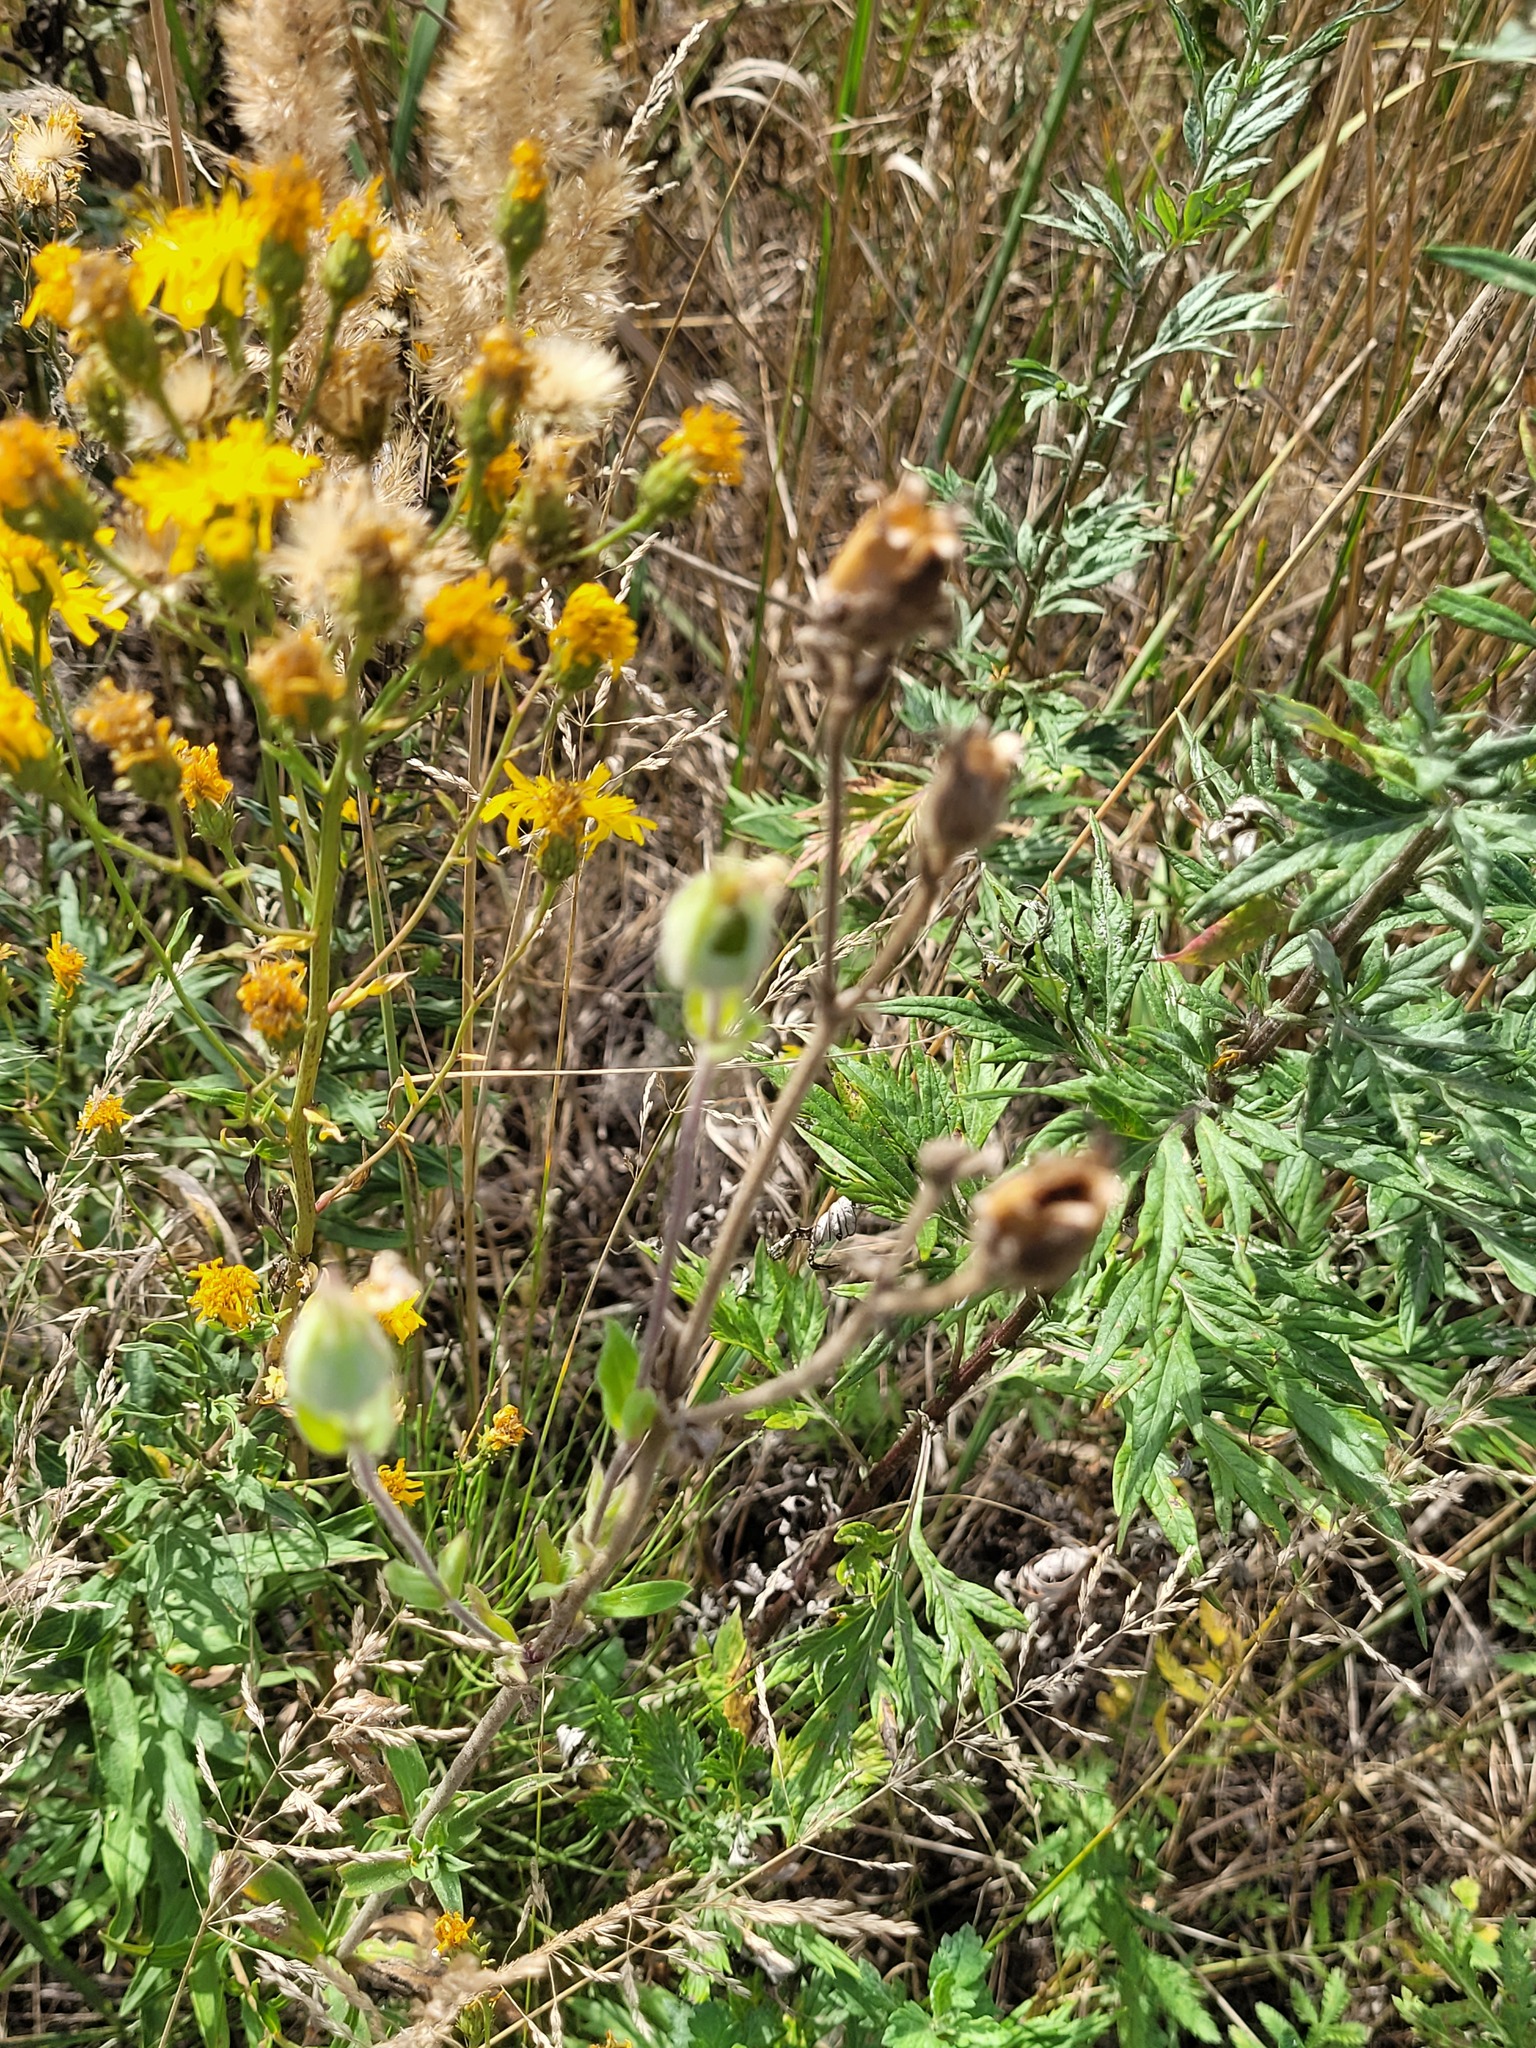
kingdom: Plantae
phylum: Tracheophyta
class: Magnoliopsida
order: Caryophyllales
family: Caryophyllaceae
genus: Silene
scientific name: Silene latifolia
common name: White campion
